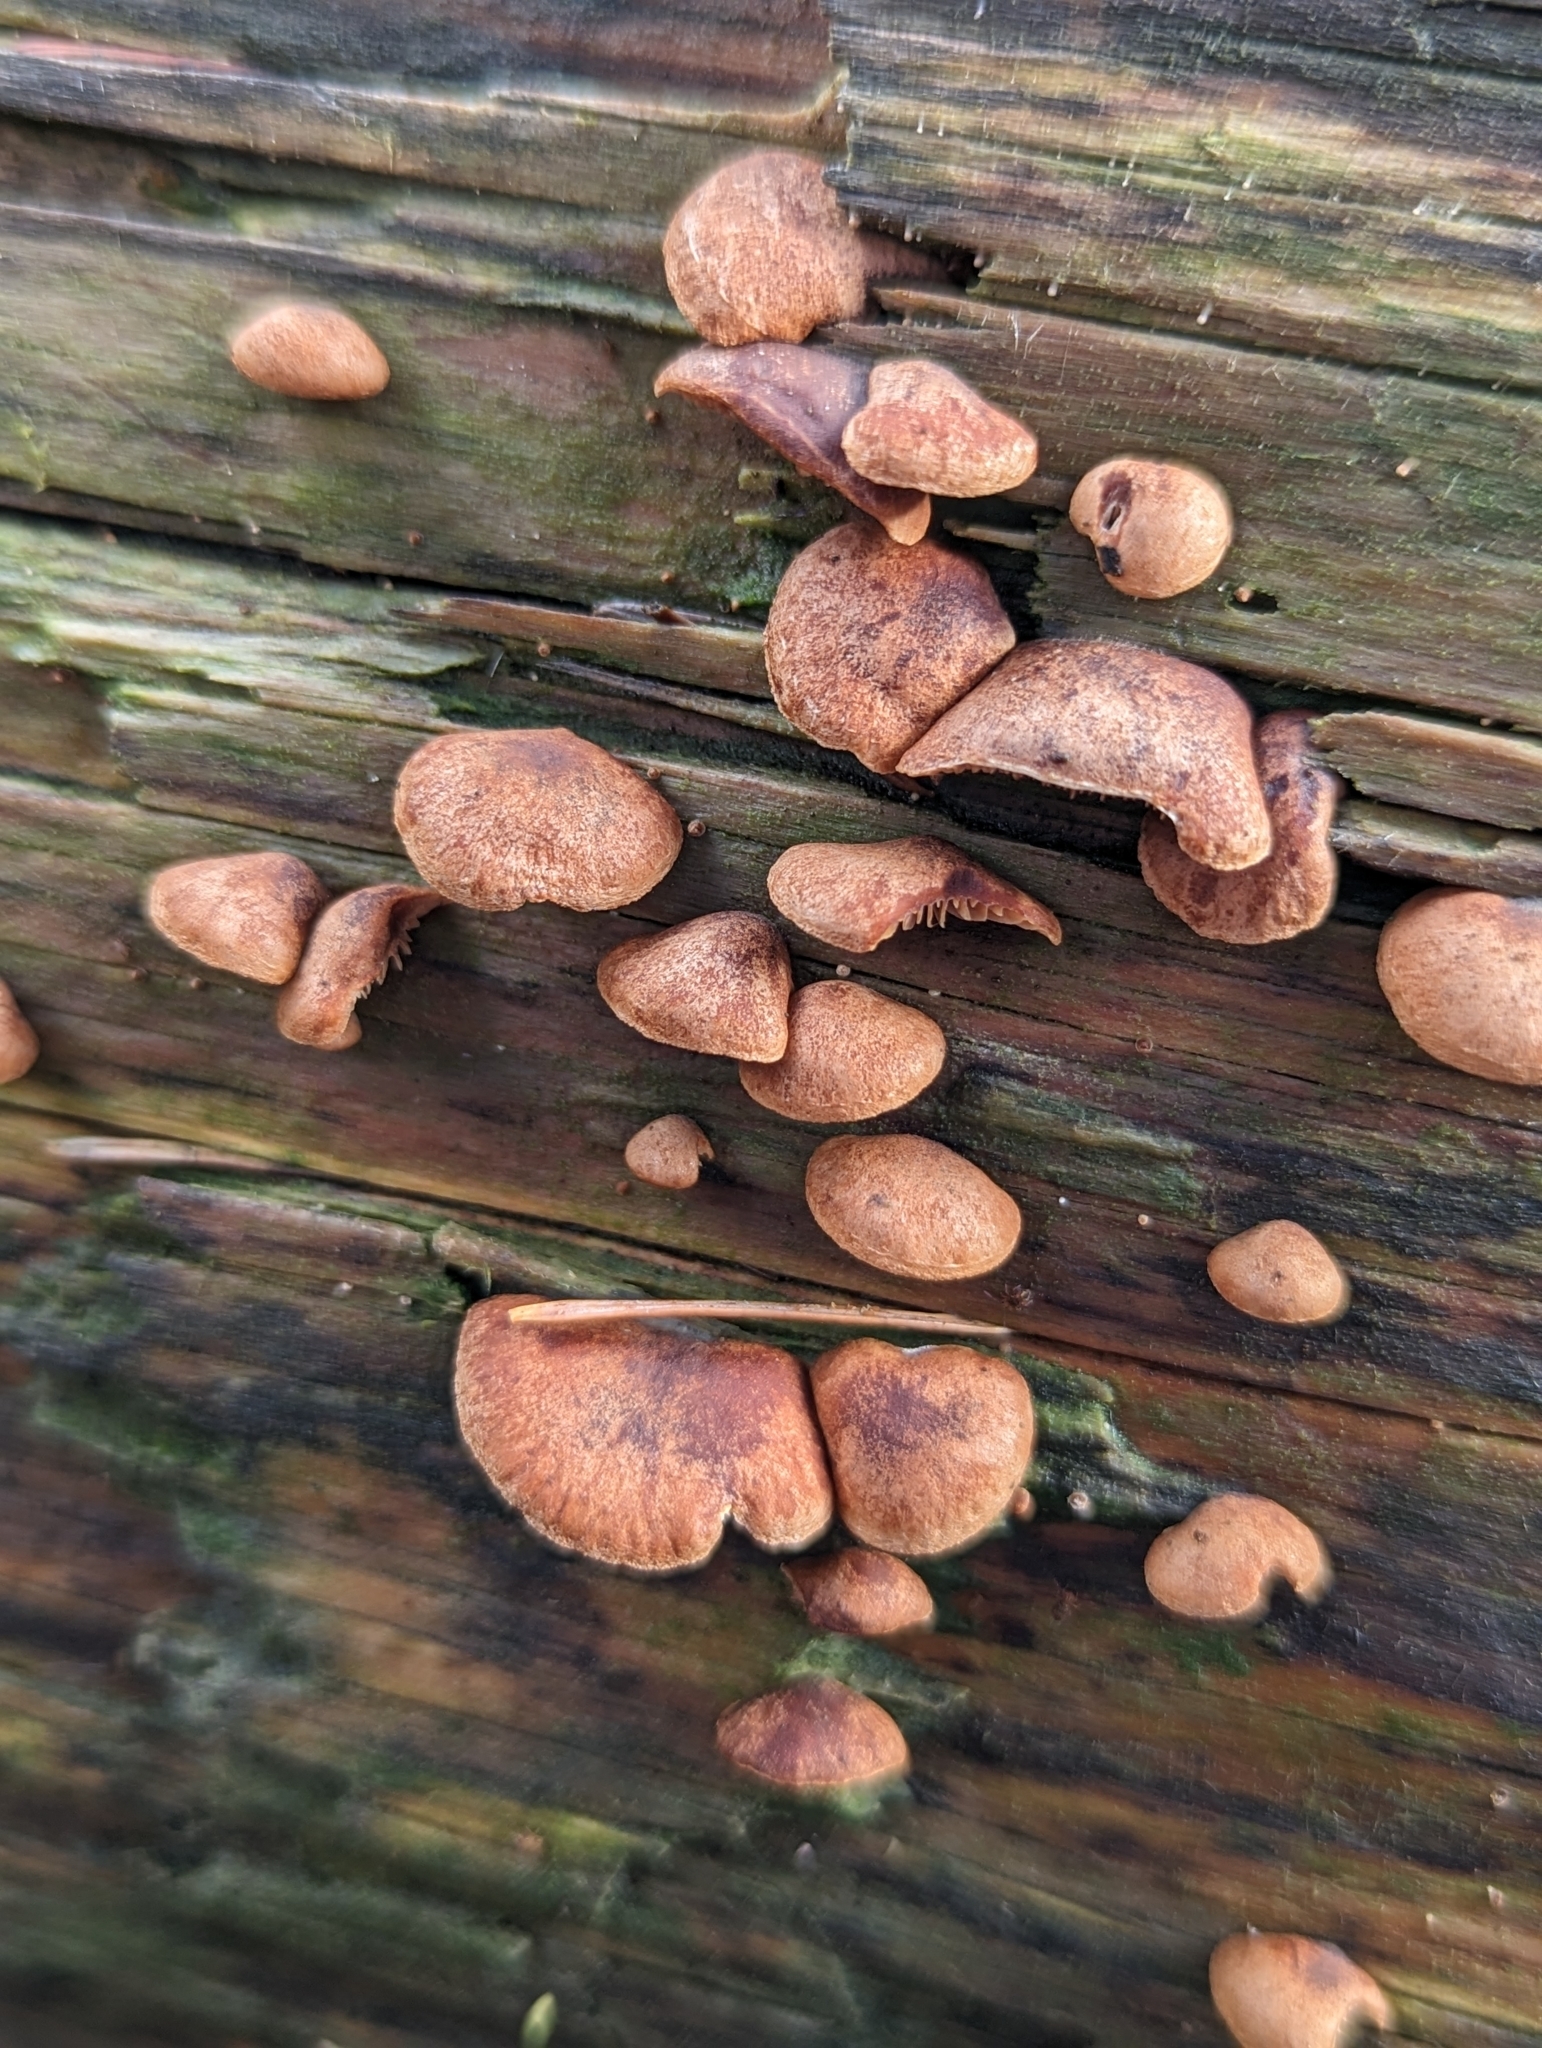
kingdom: Fungi
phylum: Basidiomycota
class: Agaricomycetes
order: Agaricales
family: Strophariaceae
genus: Deconica
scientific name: Deconica horizontalis
